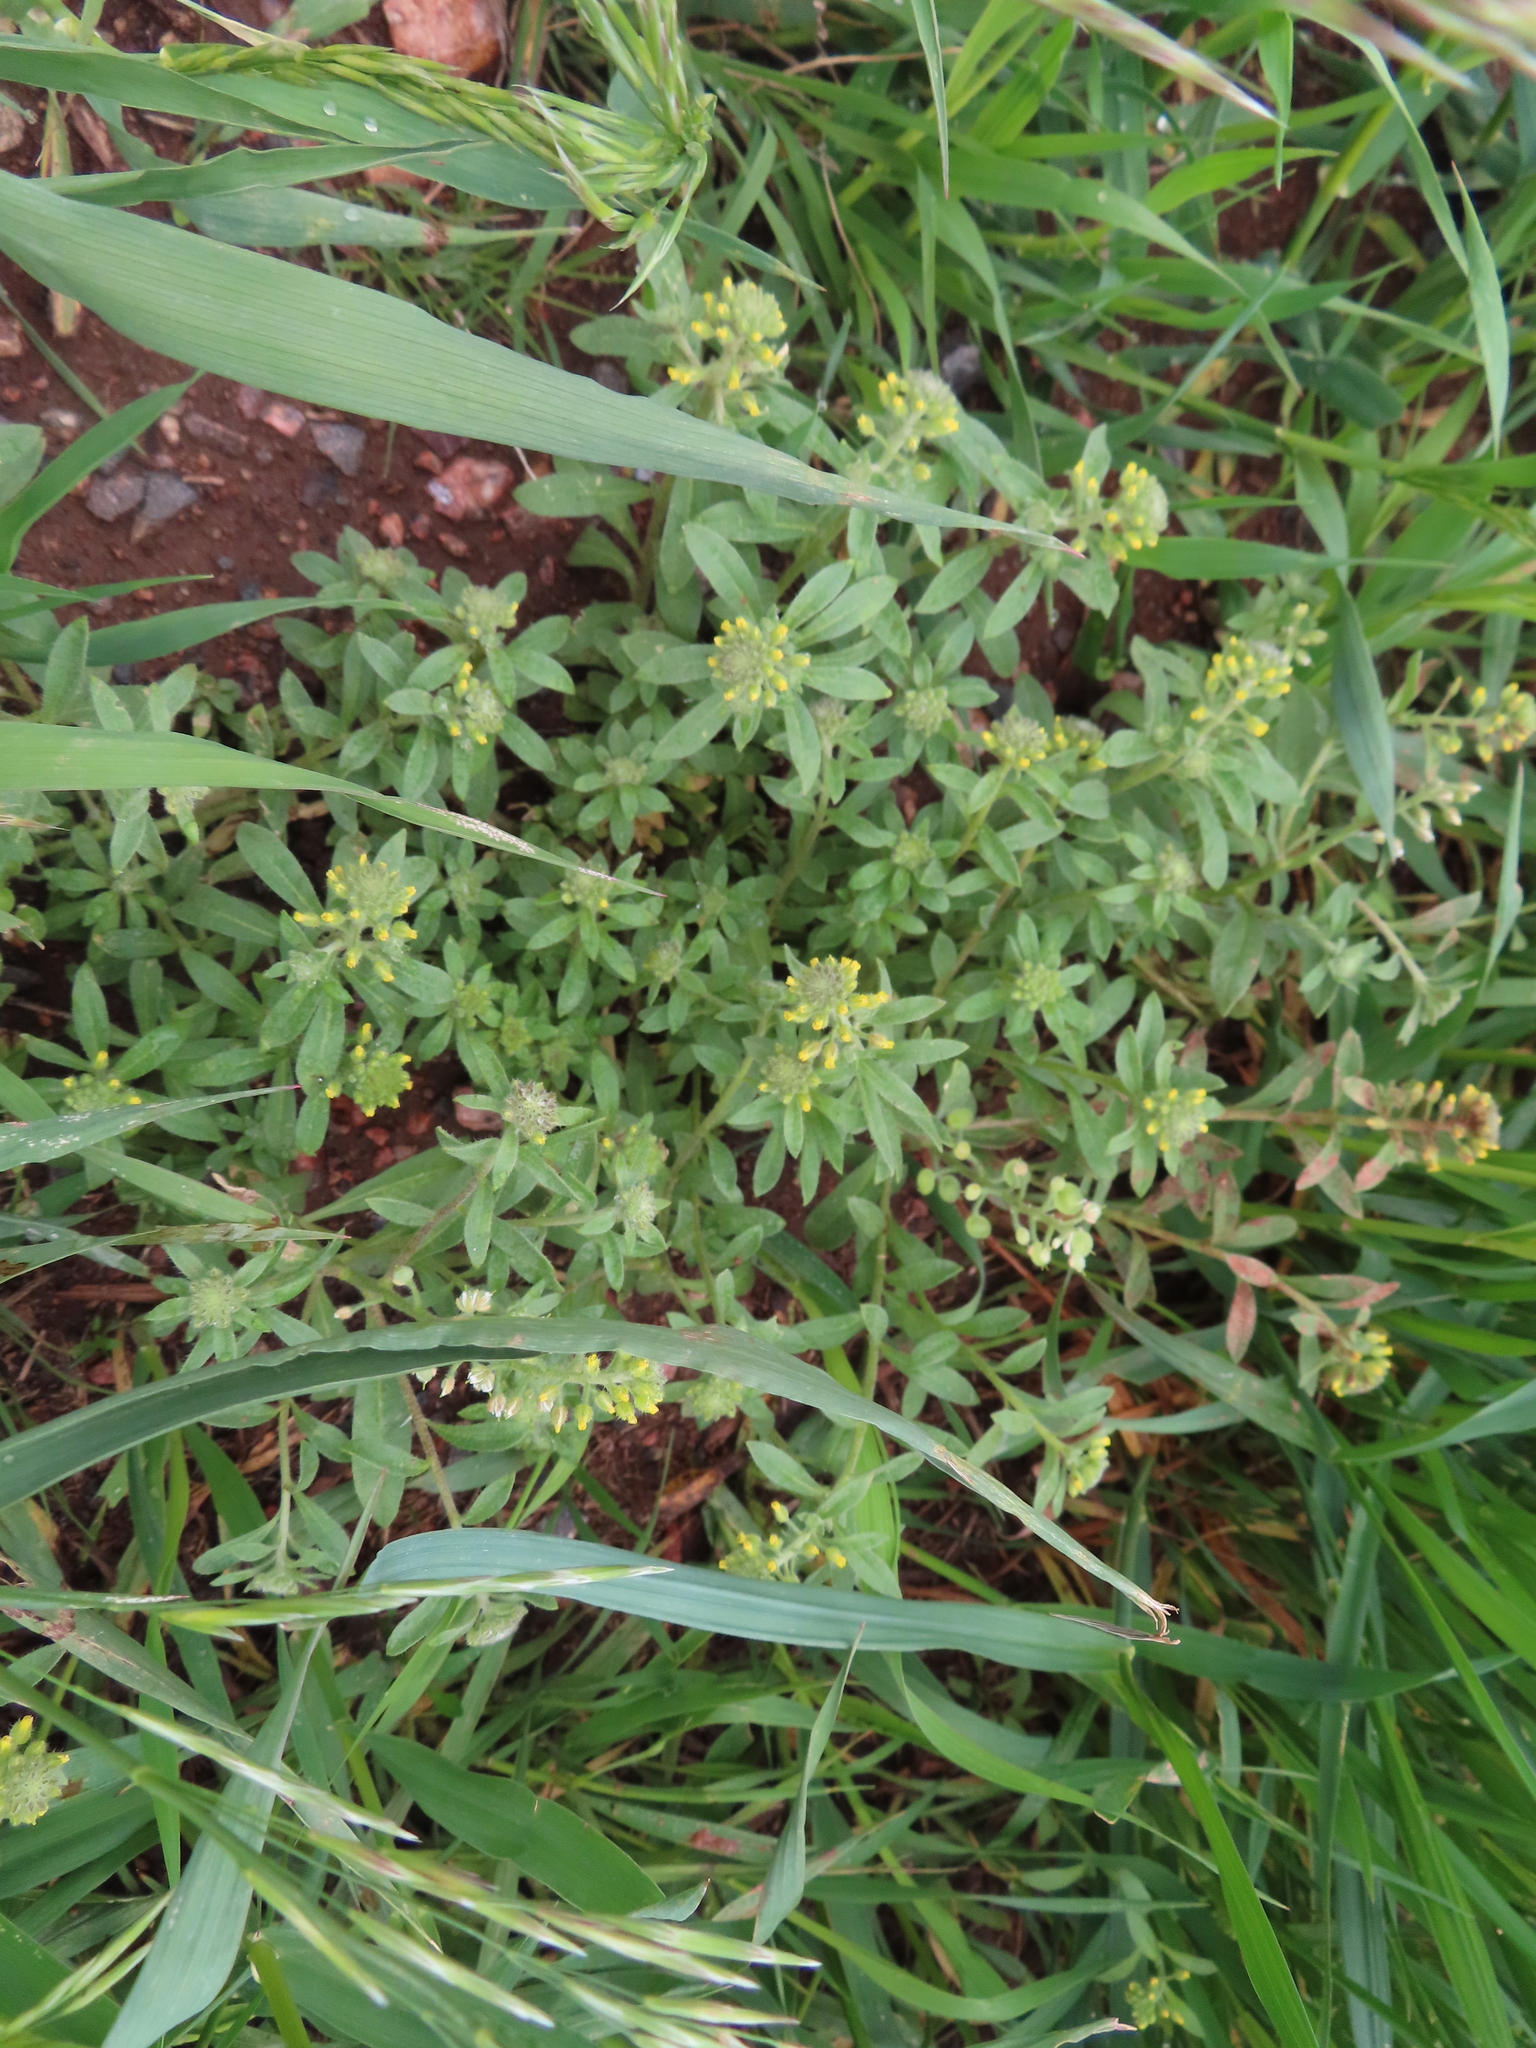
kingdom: Plantae
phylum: Tracheophyta
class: Magnoliopsida
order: Brassicales
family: Brassicaceae
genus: Alyssum
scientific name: Alyssum simplex
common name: Alyssum
